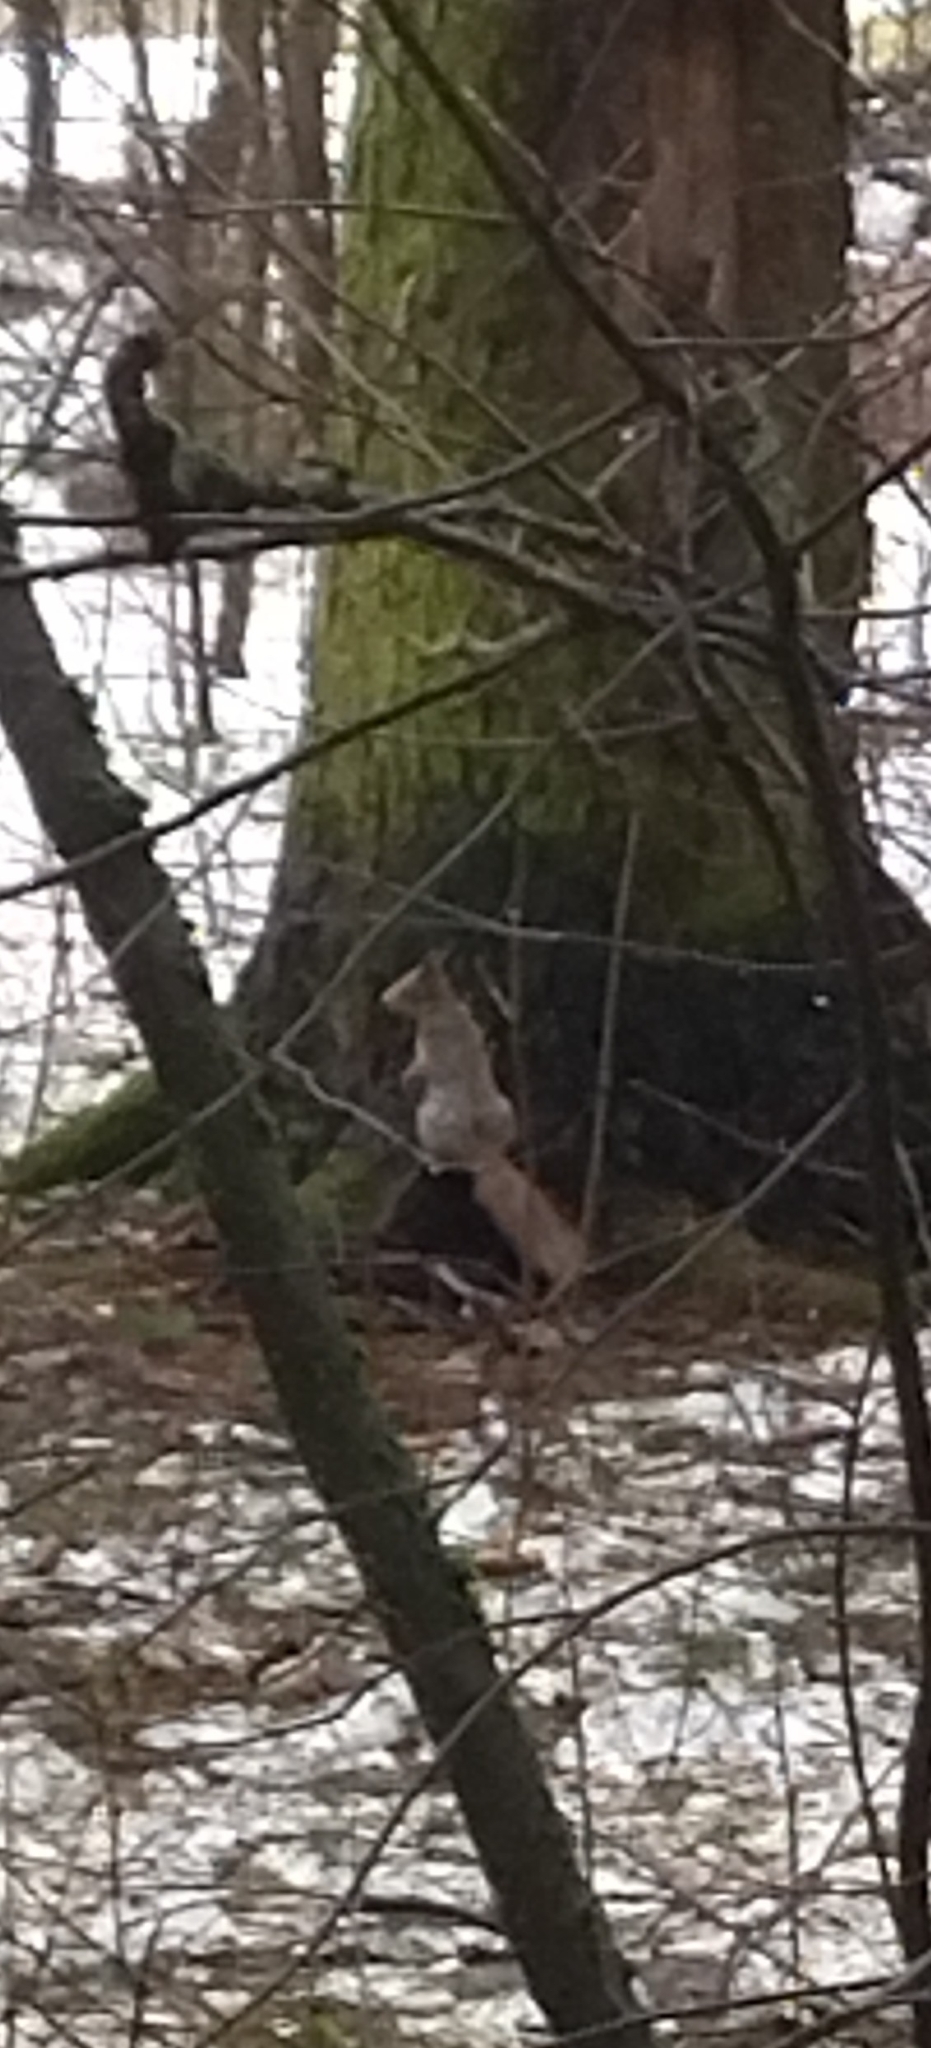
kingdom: Animalia
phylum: Chordata
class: Mammalia
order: Rodentia
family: Sciuridae
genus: Sciurus
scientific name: Sciurus vulgaris
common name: Eurasian red squirrel
